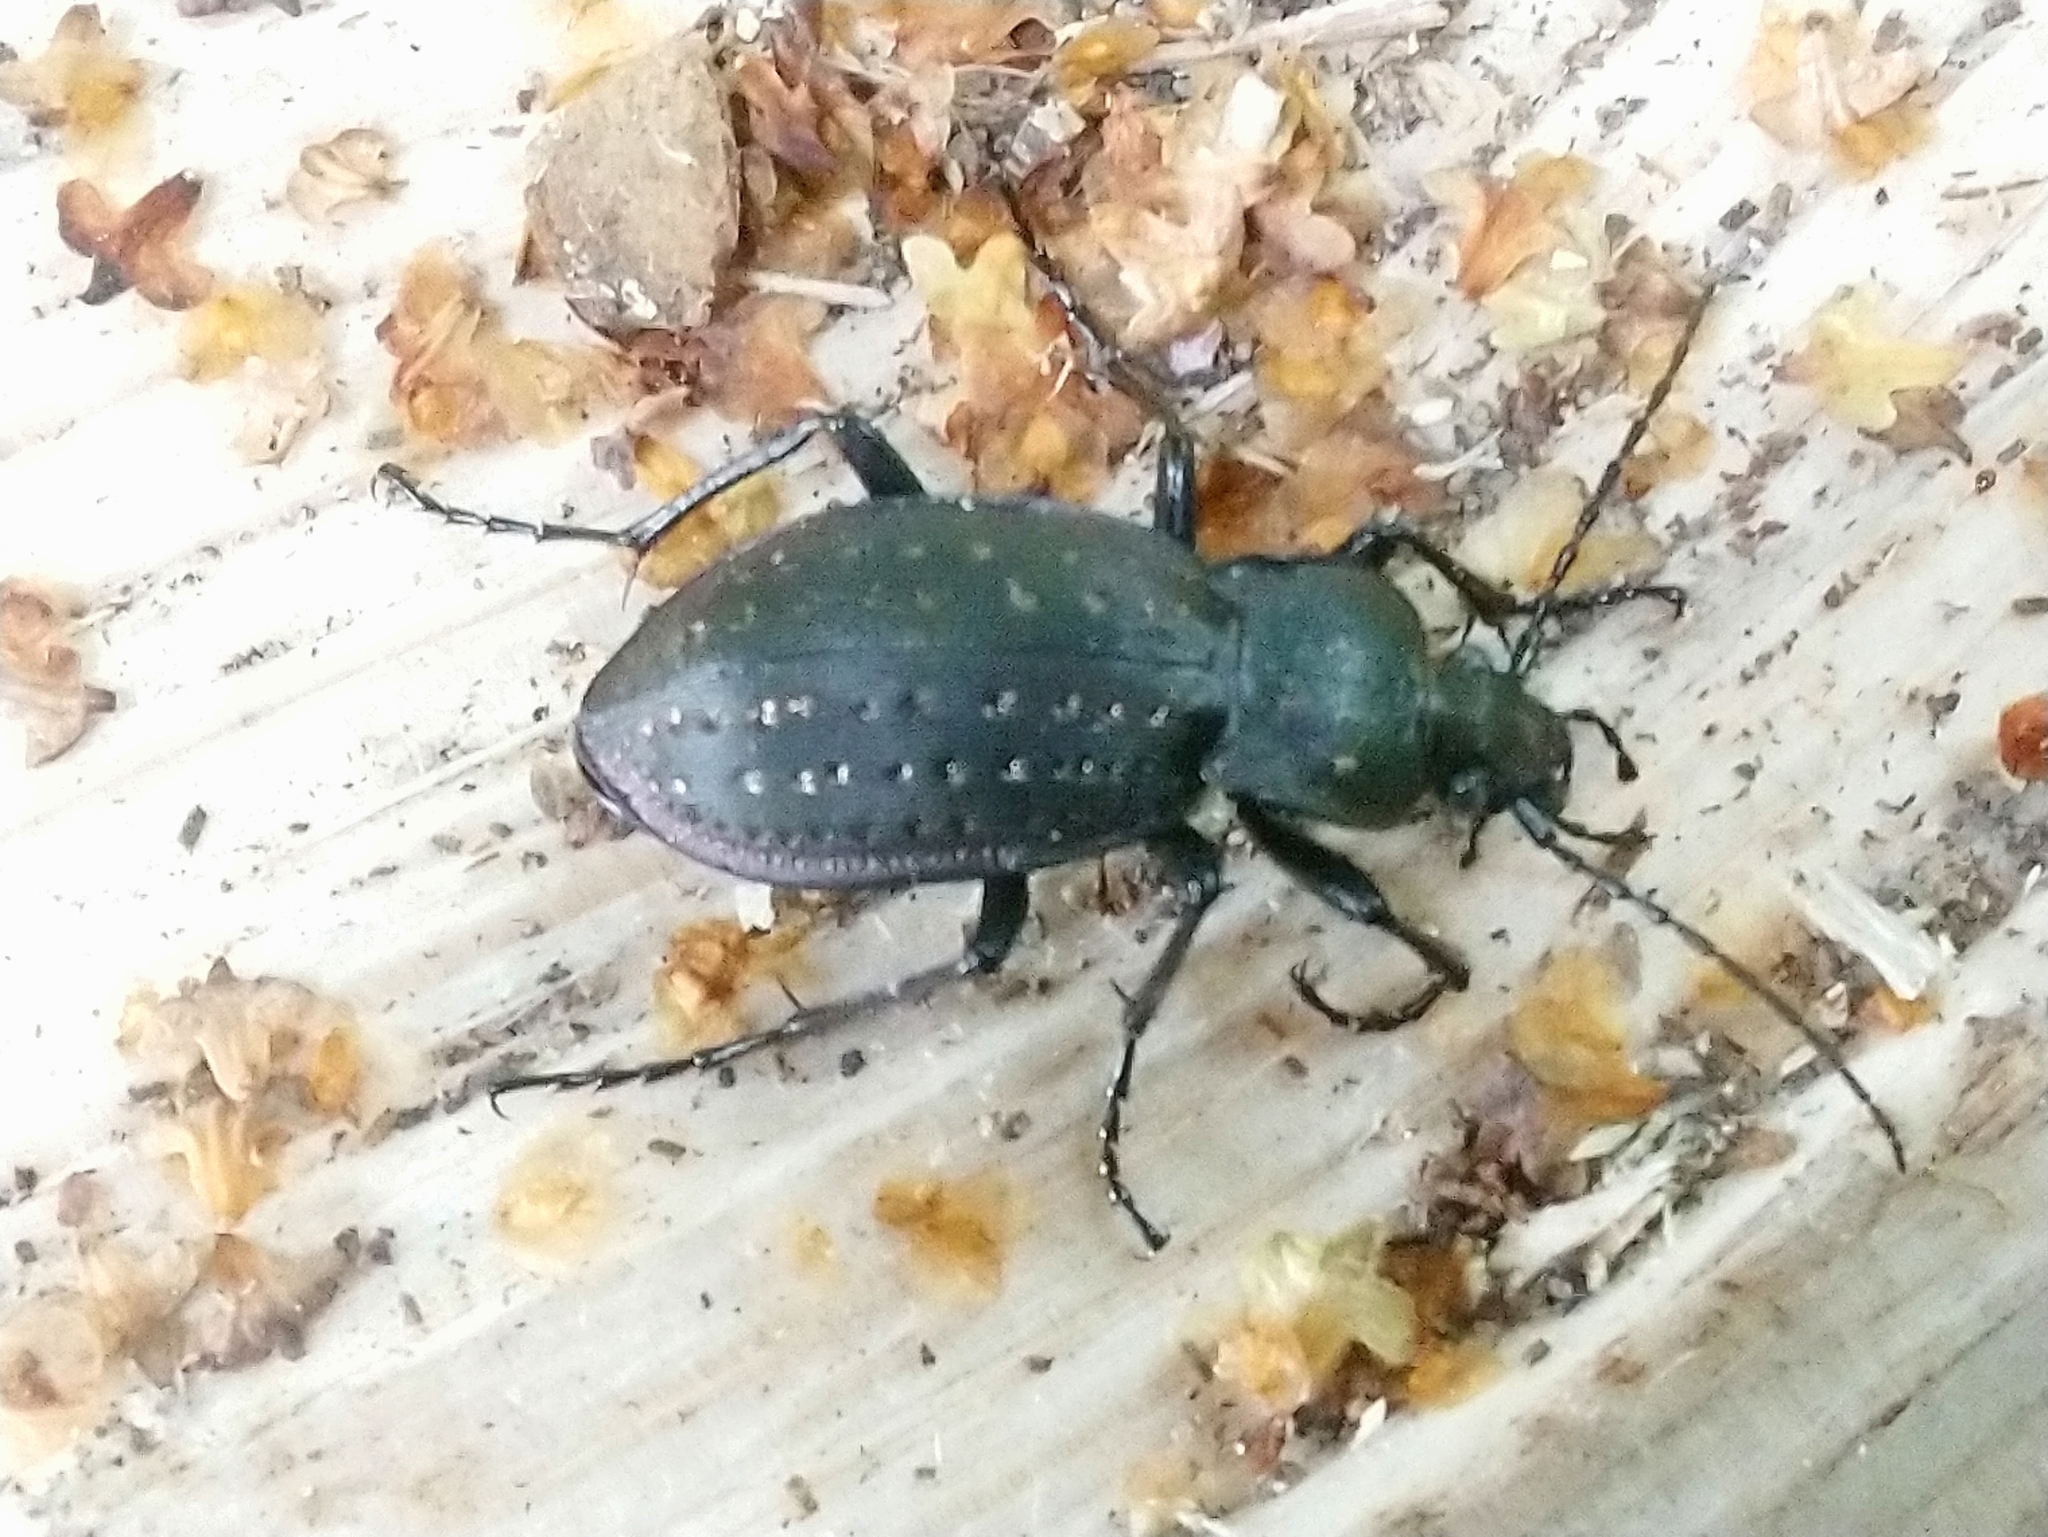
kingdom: Animalia
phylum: Arthropoda
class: Insecta
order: Coleoptera
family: Carabidae
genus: Carabus
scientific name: Carabus hortensis
